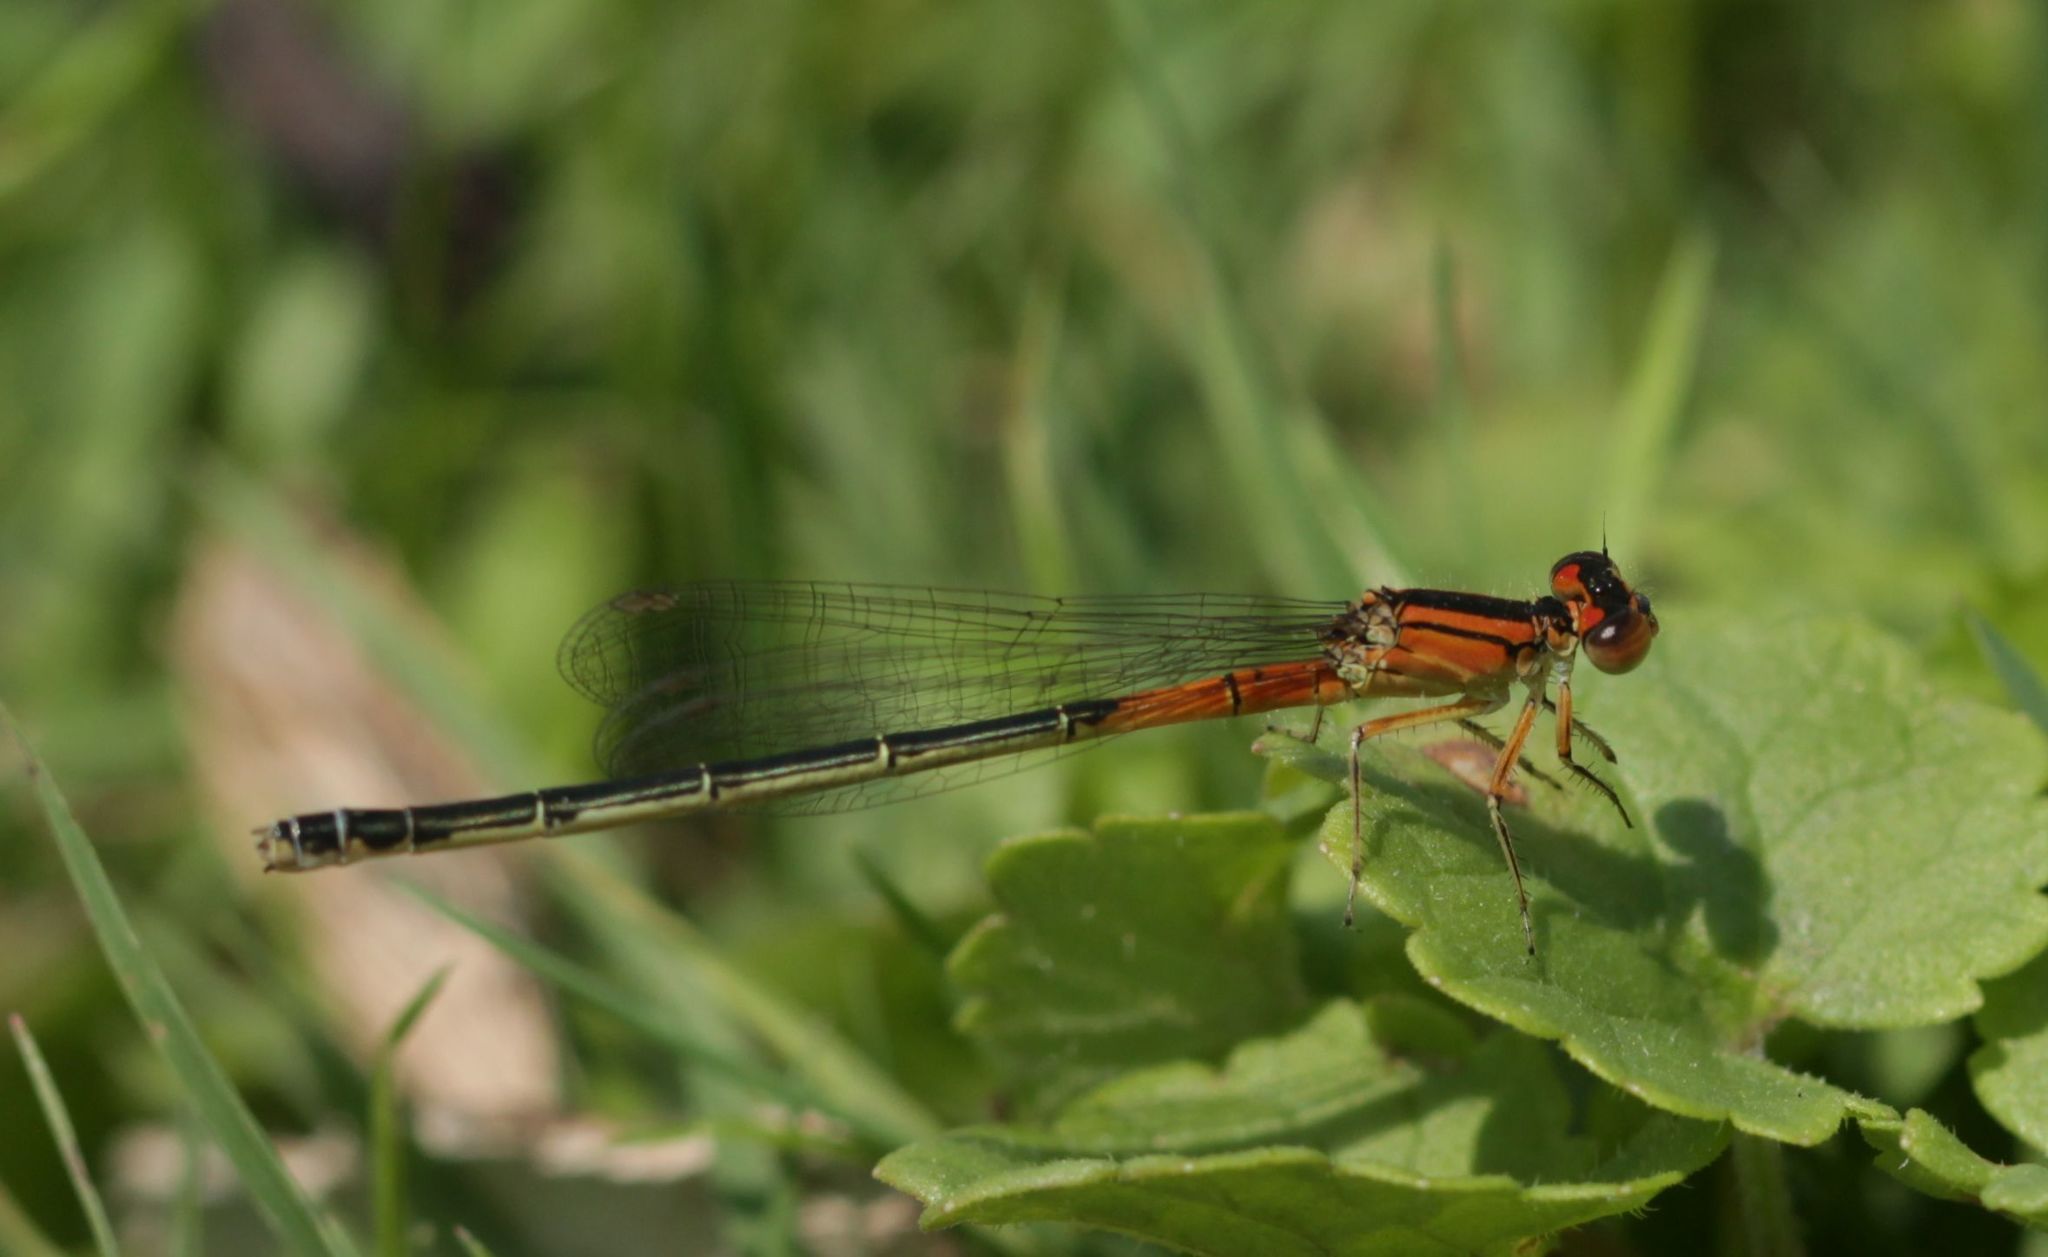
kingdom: Animalia
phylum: Arthropoda
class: Insecta
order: Odonata
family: Coenagrionidae
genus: Ischnura
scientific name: Ischnura verticalis
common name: Eastern forktail
